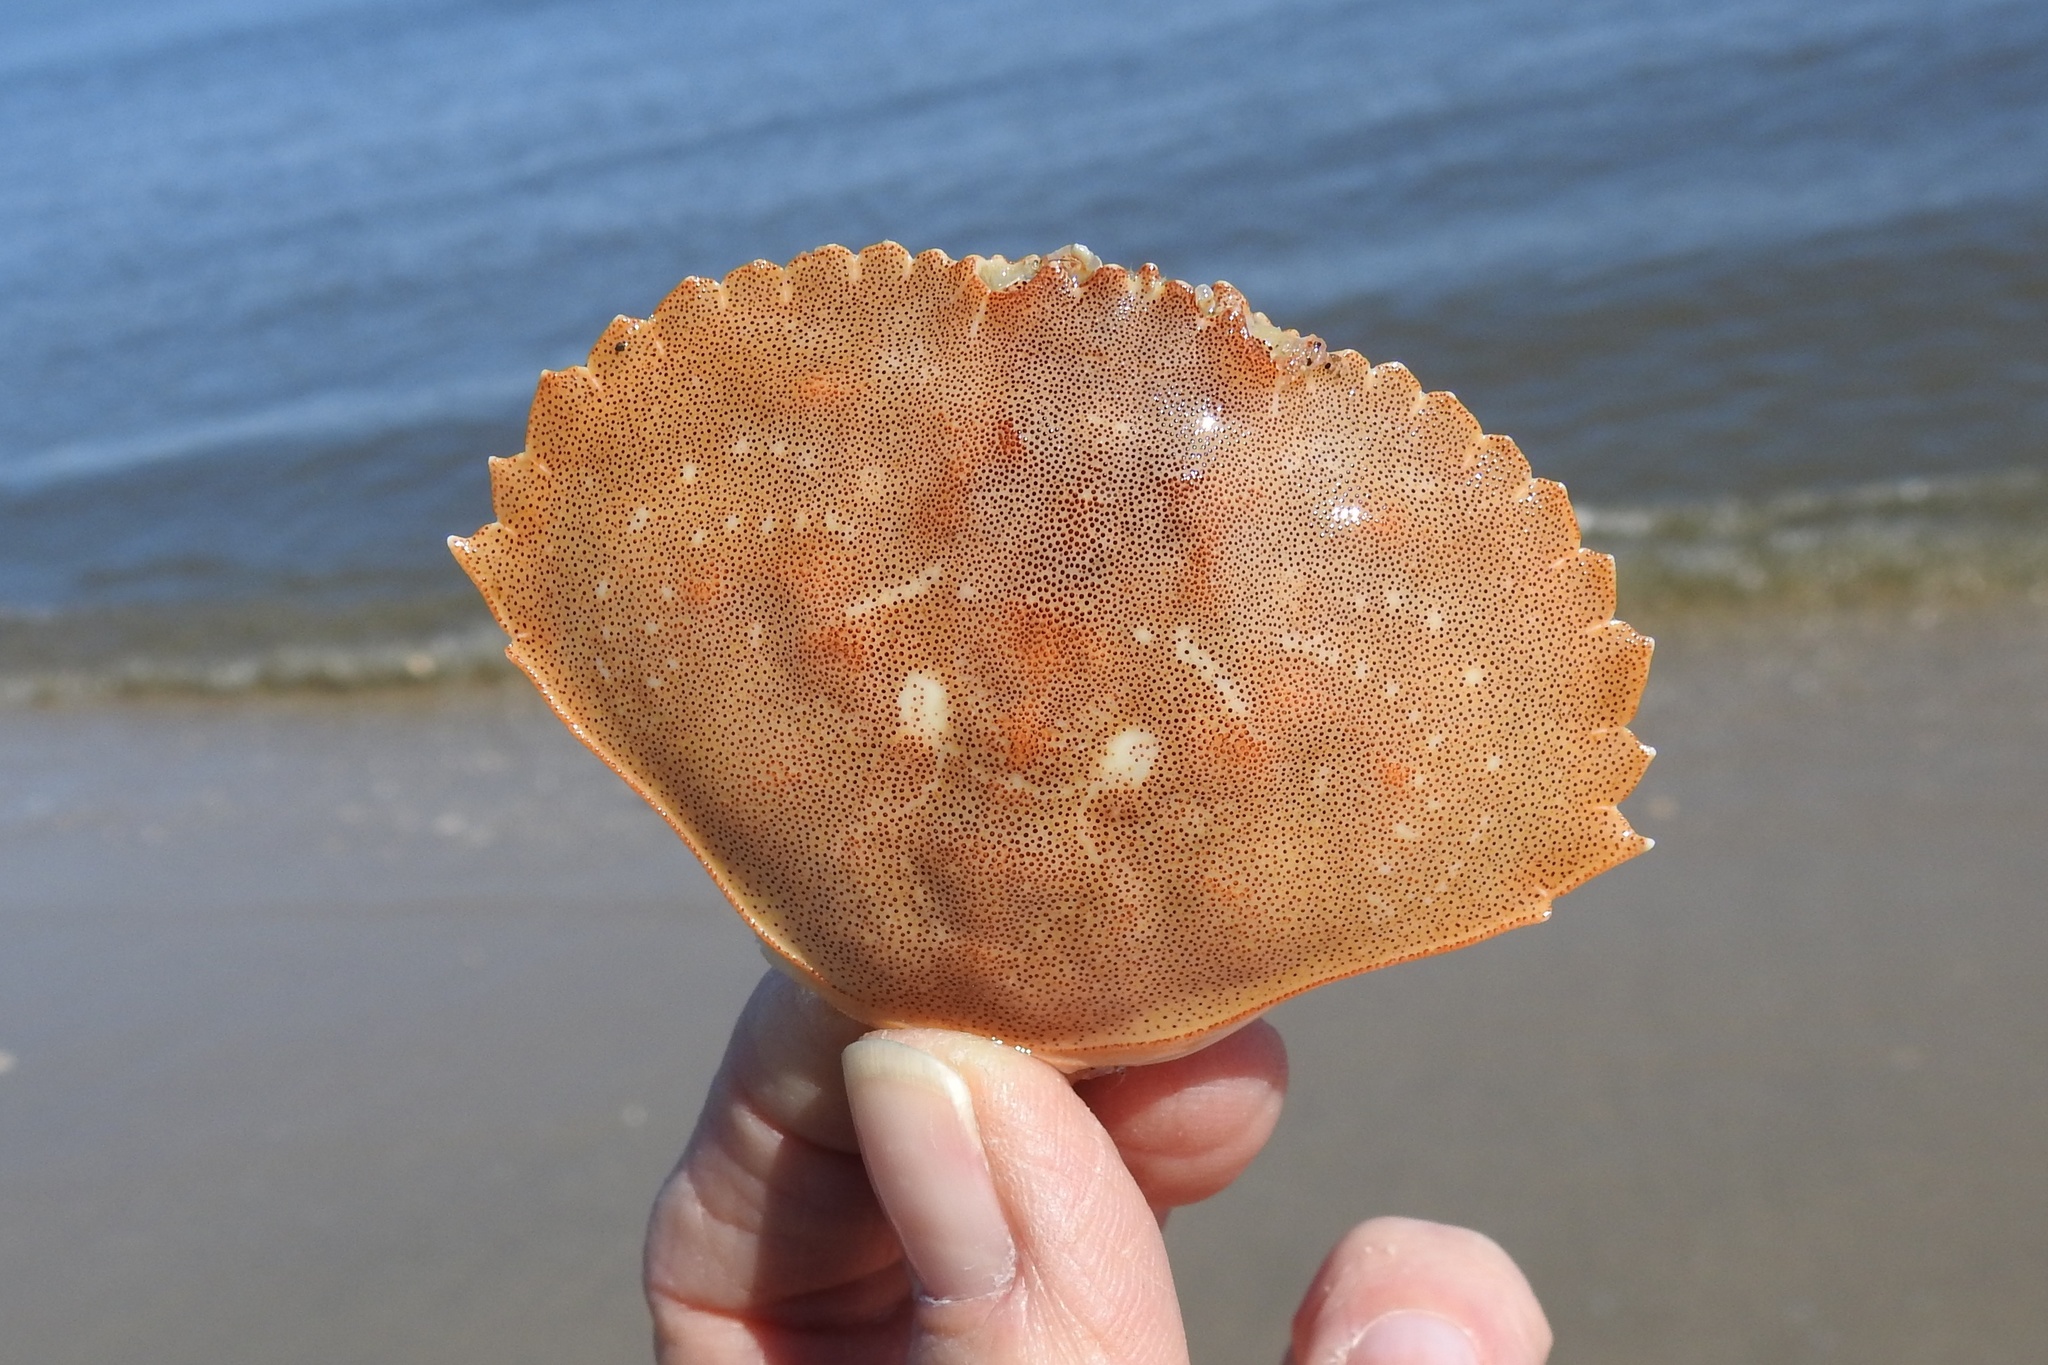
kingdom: Animalia
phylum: Arthropoda
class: Malacostraca
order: Decapoda
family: Cancridae
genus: Cancer
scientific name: Cancer irroratus
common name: Atlantic rock crab
